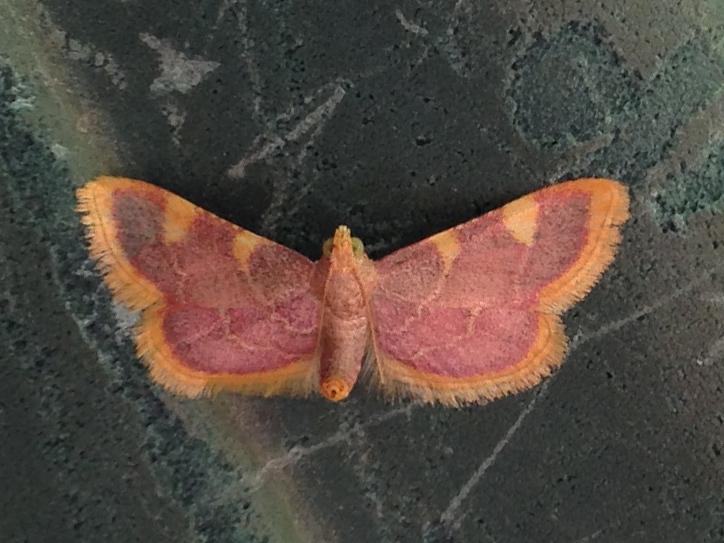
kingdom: Animalia
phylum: Arthropoda
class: Insecta
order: Lepidoptera
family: Pyralidae
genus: Hypsopygia
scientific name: Hypsopygia costalis
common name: Gold triangle
